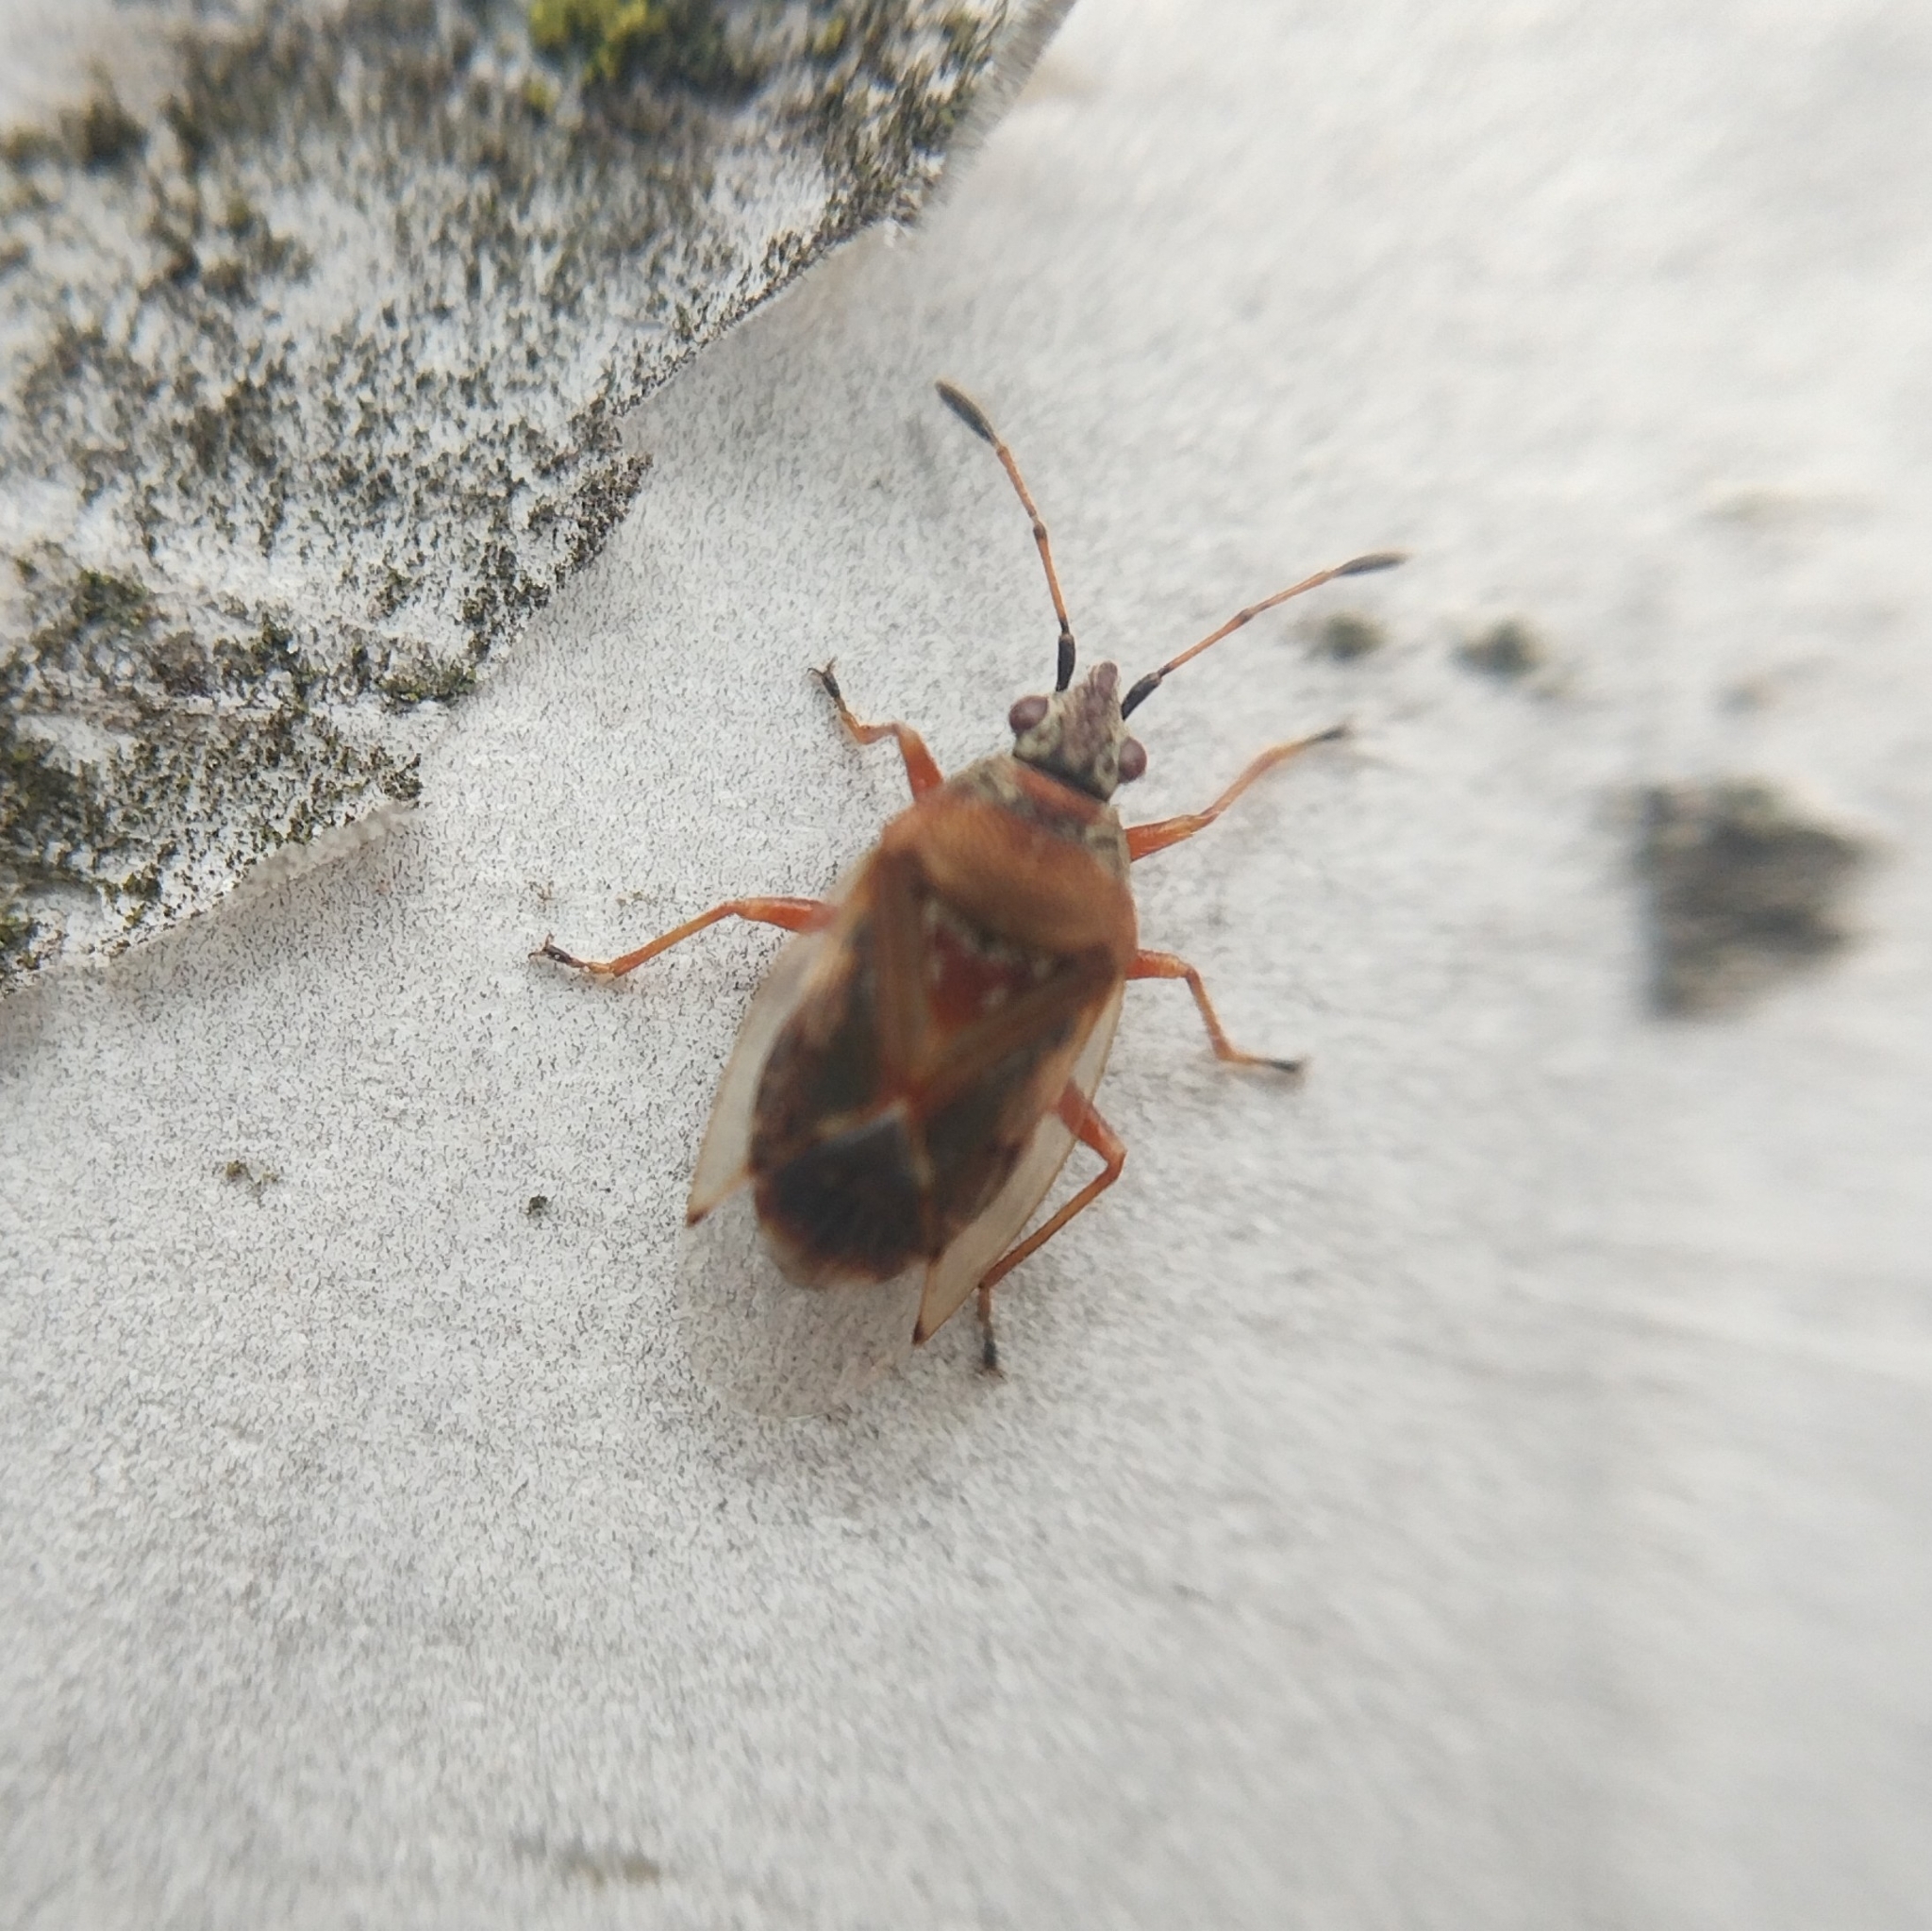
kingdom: Animalia
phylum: Arthropoda
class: Insecta
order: Hemiptera
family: Lygaeidae
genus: Kleidocerys
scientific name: Kleidocerys resedae
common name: Birch catkin bug
